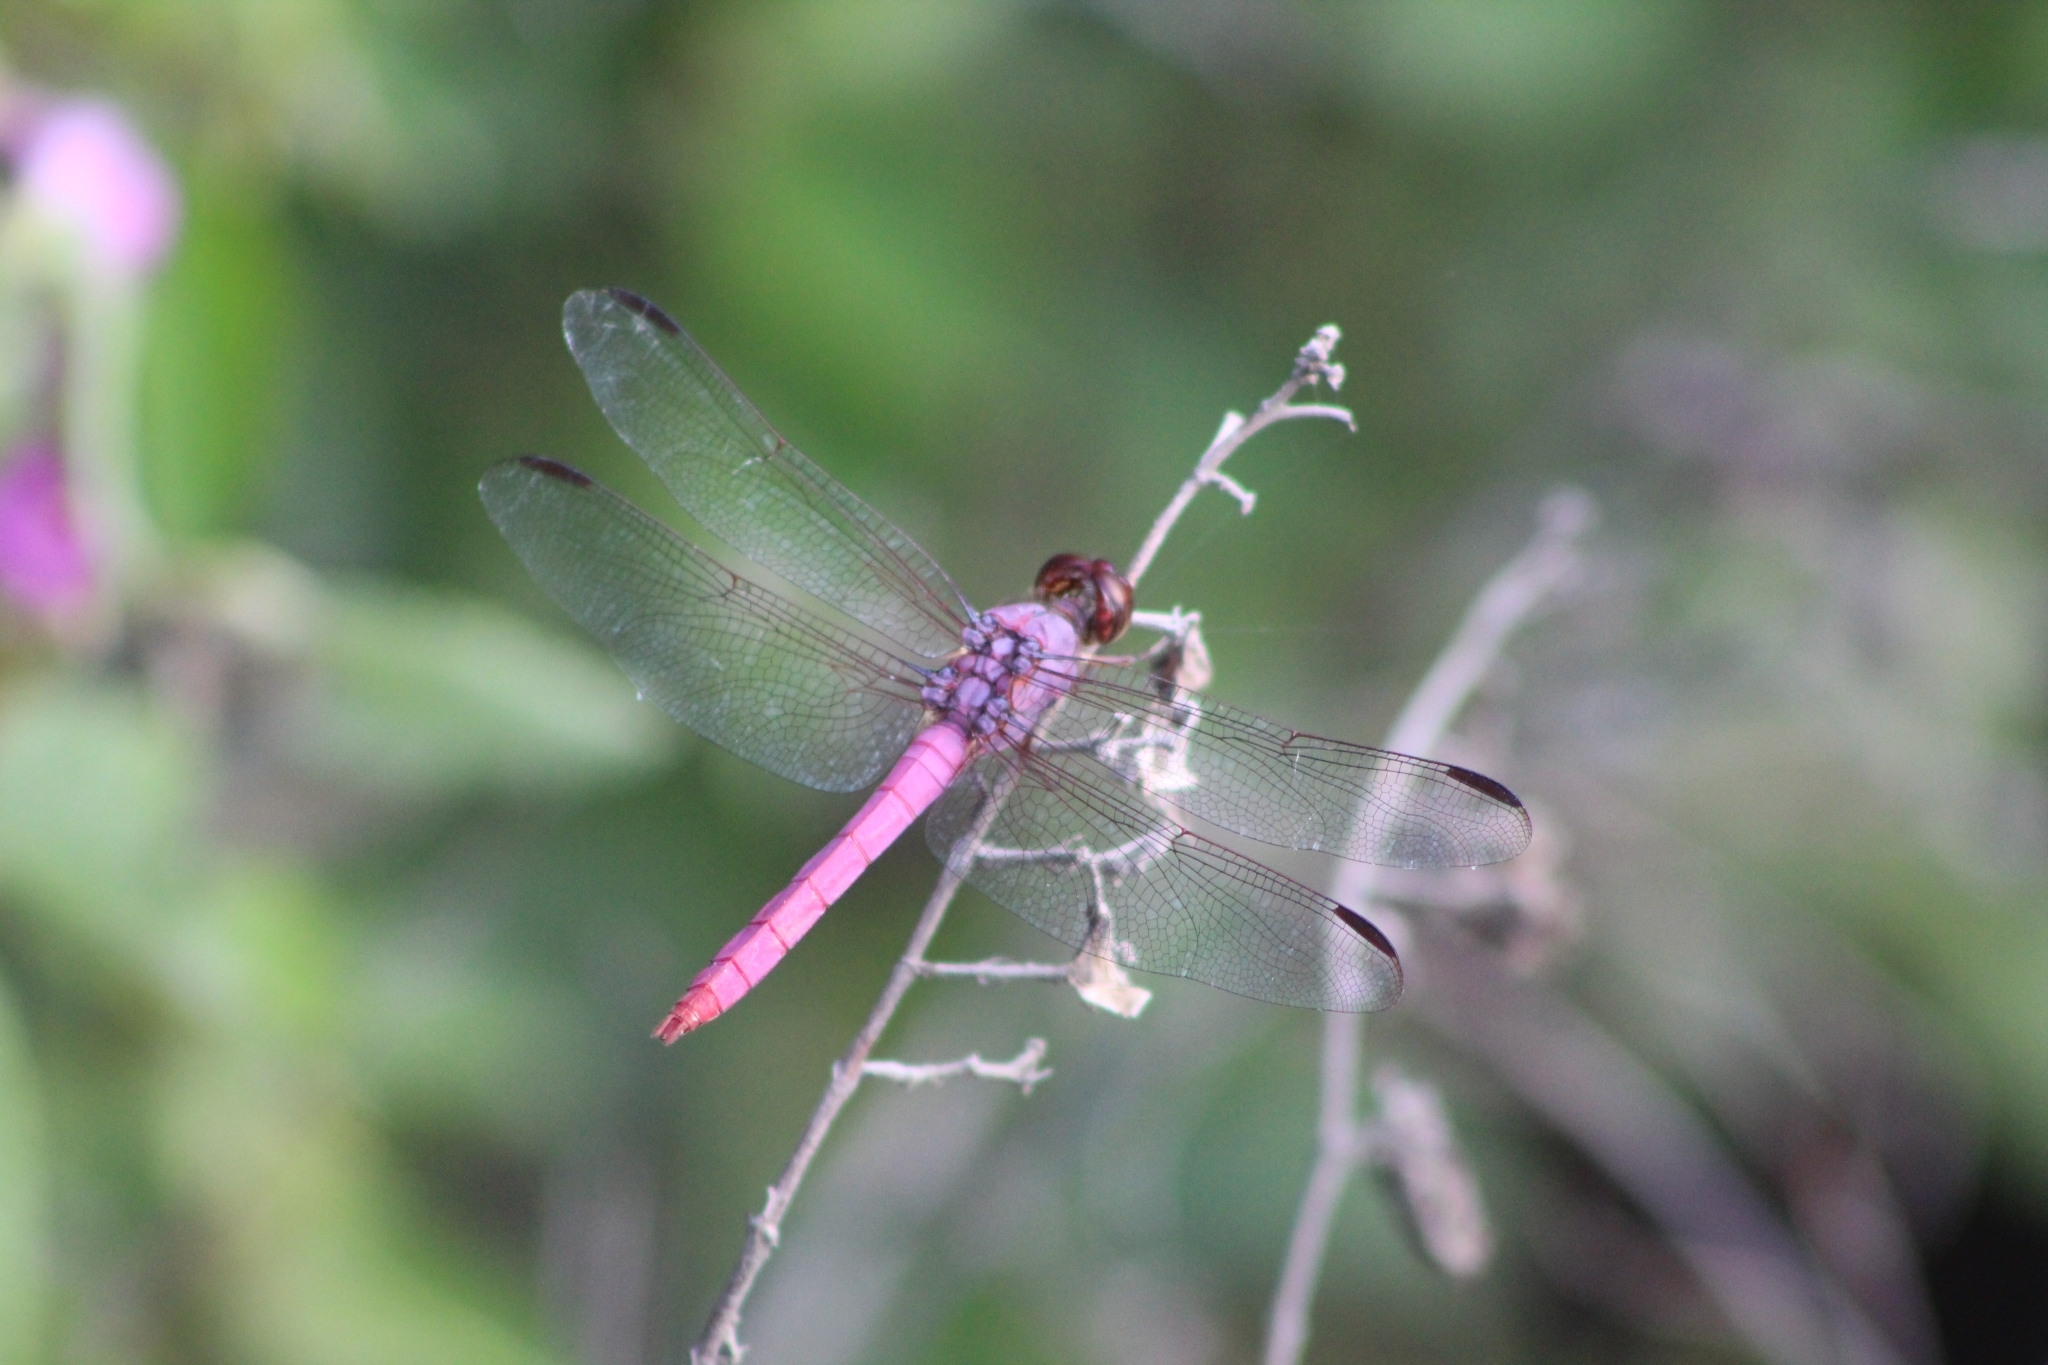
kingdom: Animalia
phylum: Arthropoda
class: Insecta
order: Odonata
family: Libellulidae
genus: Orthemis
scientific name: Orthemis ferruginea
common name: Roseate skimmer
